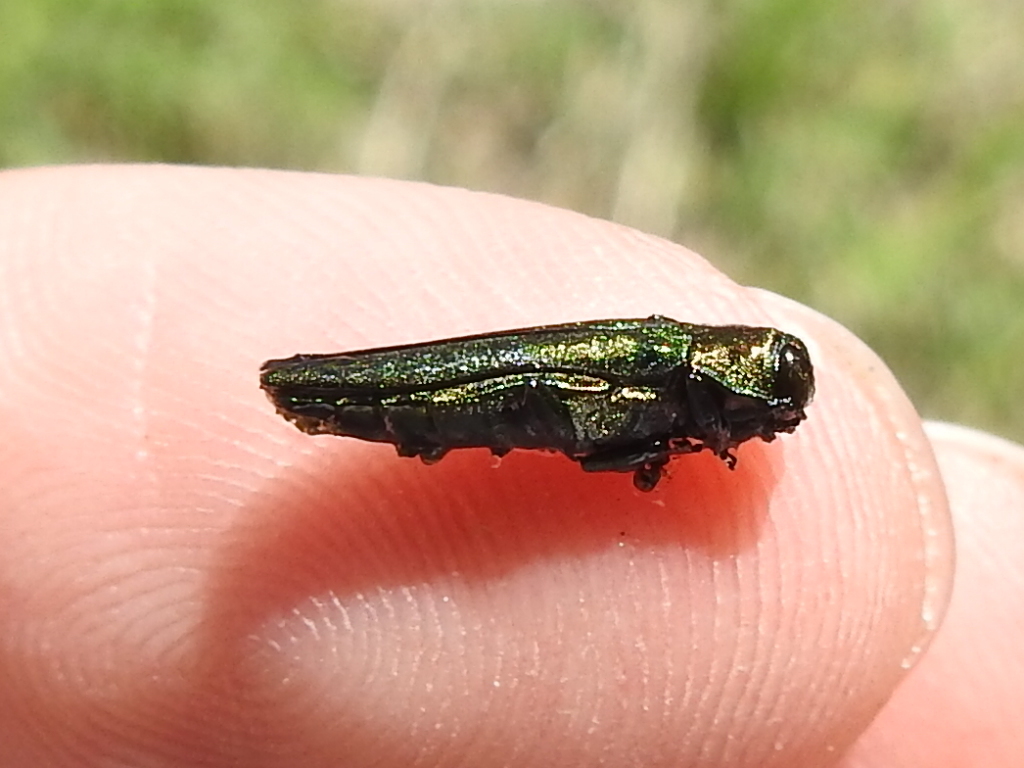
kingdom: Animalia
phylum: Arthropoda
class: Insecta
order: Coleoptera
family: Buprestidae
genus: Agrilus
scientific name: Agrilus planipennis
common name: Emerald ash borer
